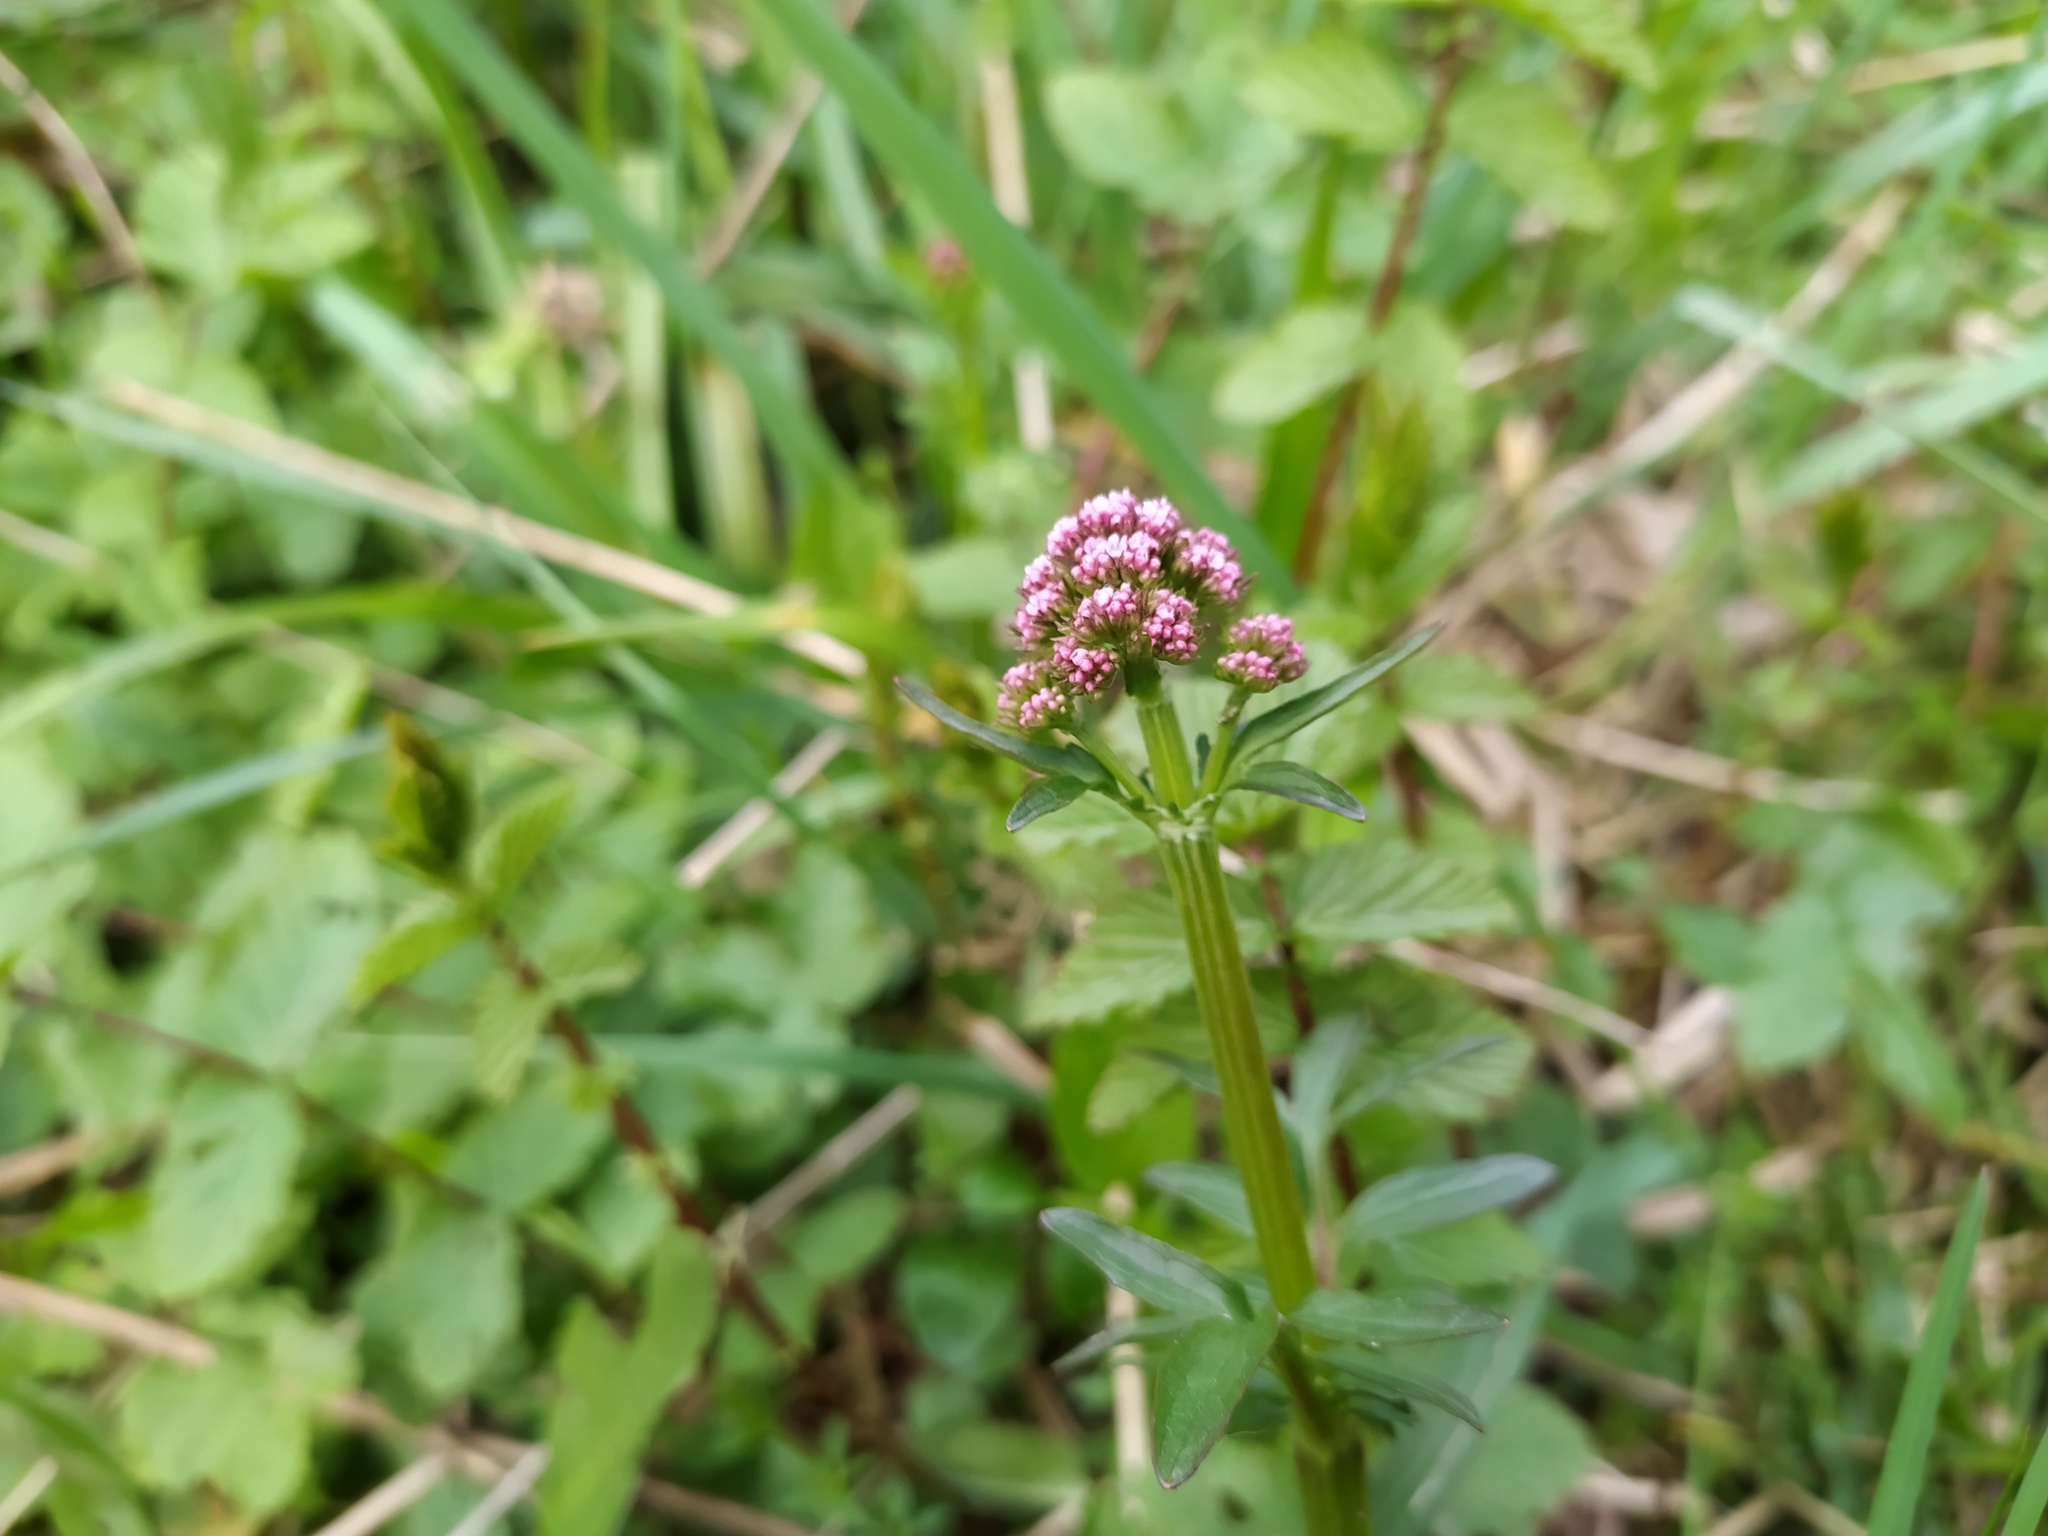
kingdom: Plantae
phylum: Tracheophyta
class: Magnoliopsida
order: Dipsacales
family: Caprifoliaceae
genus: Valeriana
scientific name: Valeriana dioica
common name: Marsh valerian
